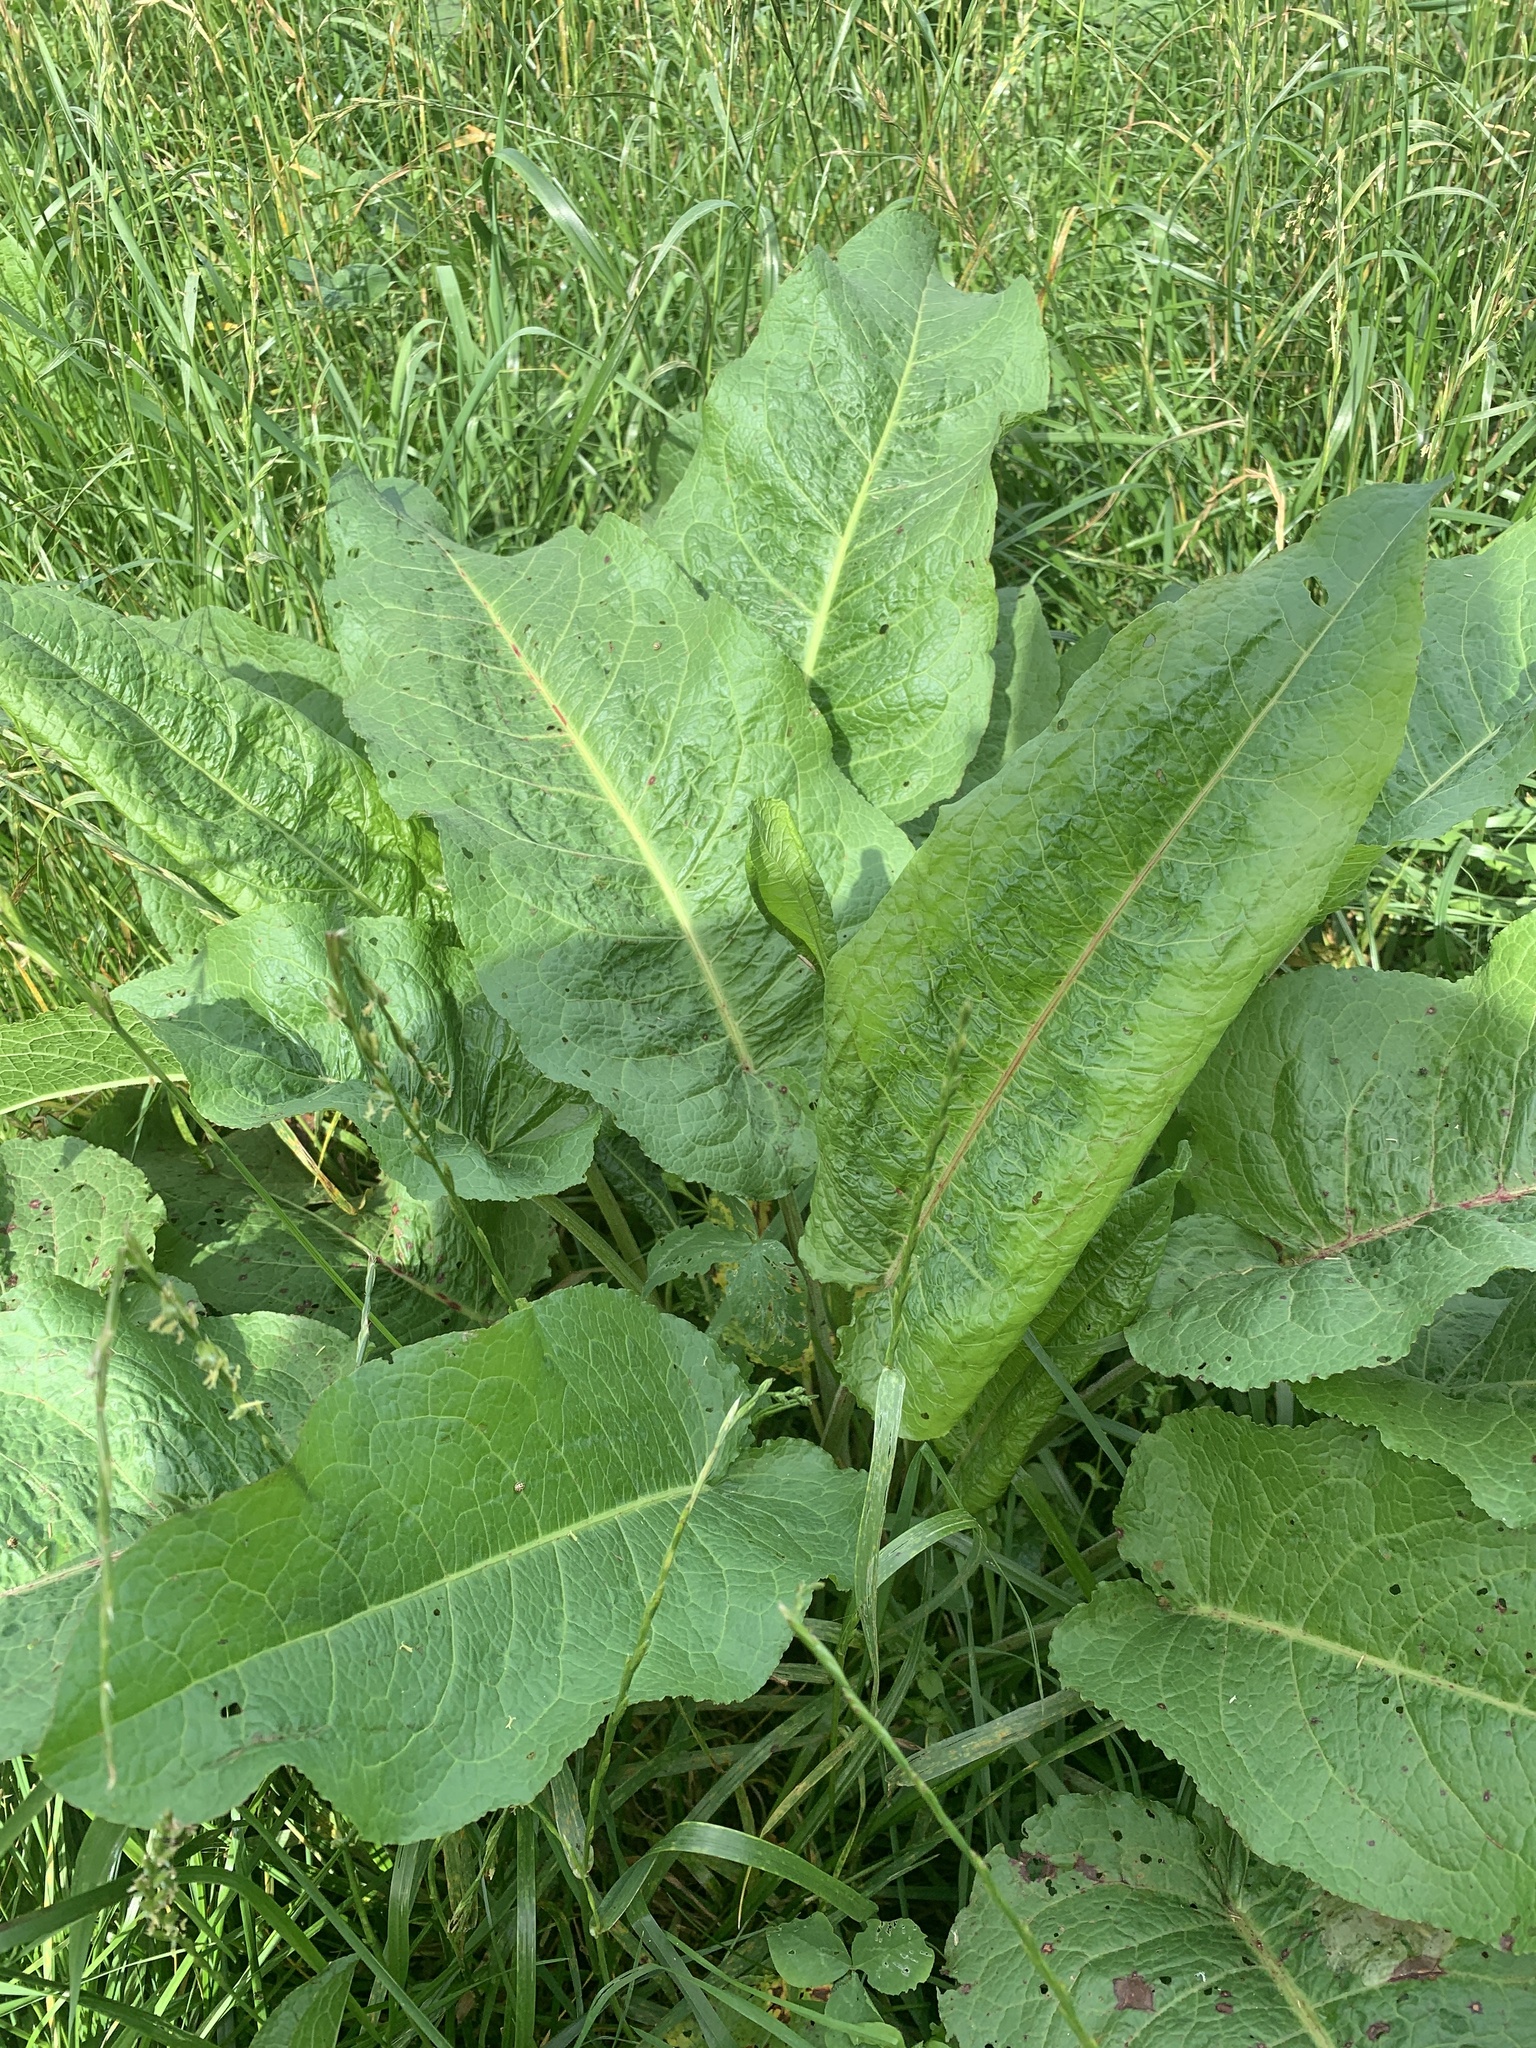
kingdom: Plantae
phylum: Tracheophyta
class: Magnoliopsida
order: Caryophyllales
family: Polygonaceae
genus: Rumex
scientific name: Rumex obtusifolius
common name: Bitter dock
